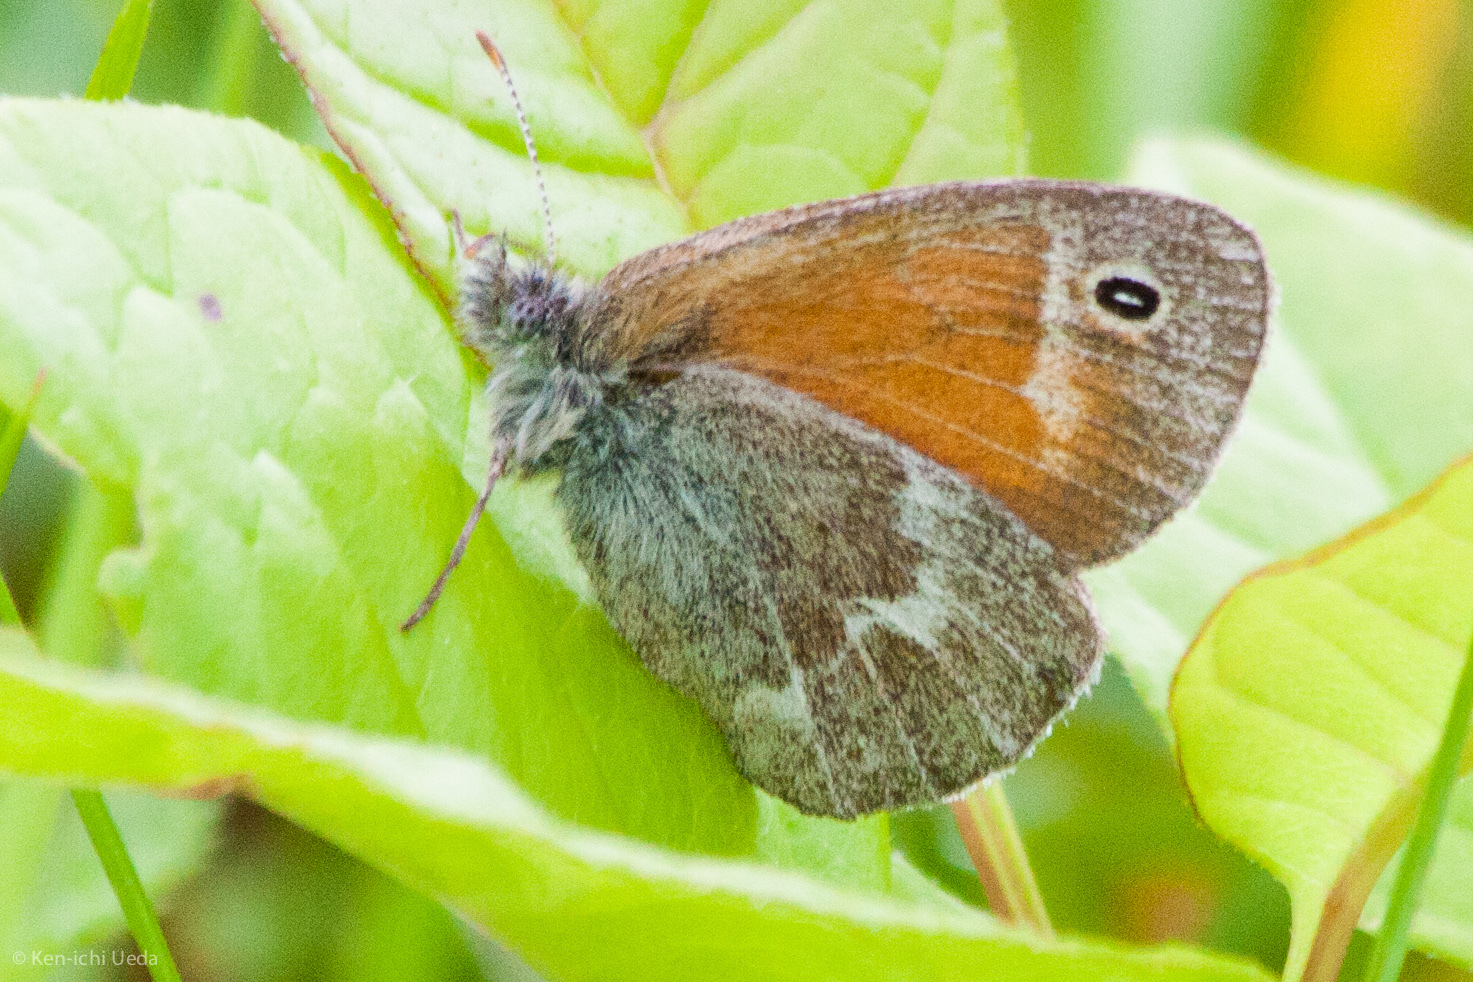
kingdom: Animalia
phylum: Arthropoda
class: Insecta
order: Lepidoptera
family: Nymphalidae
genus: Coenonympha
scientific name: Coenonympha california
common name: Common ringlet
